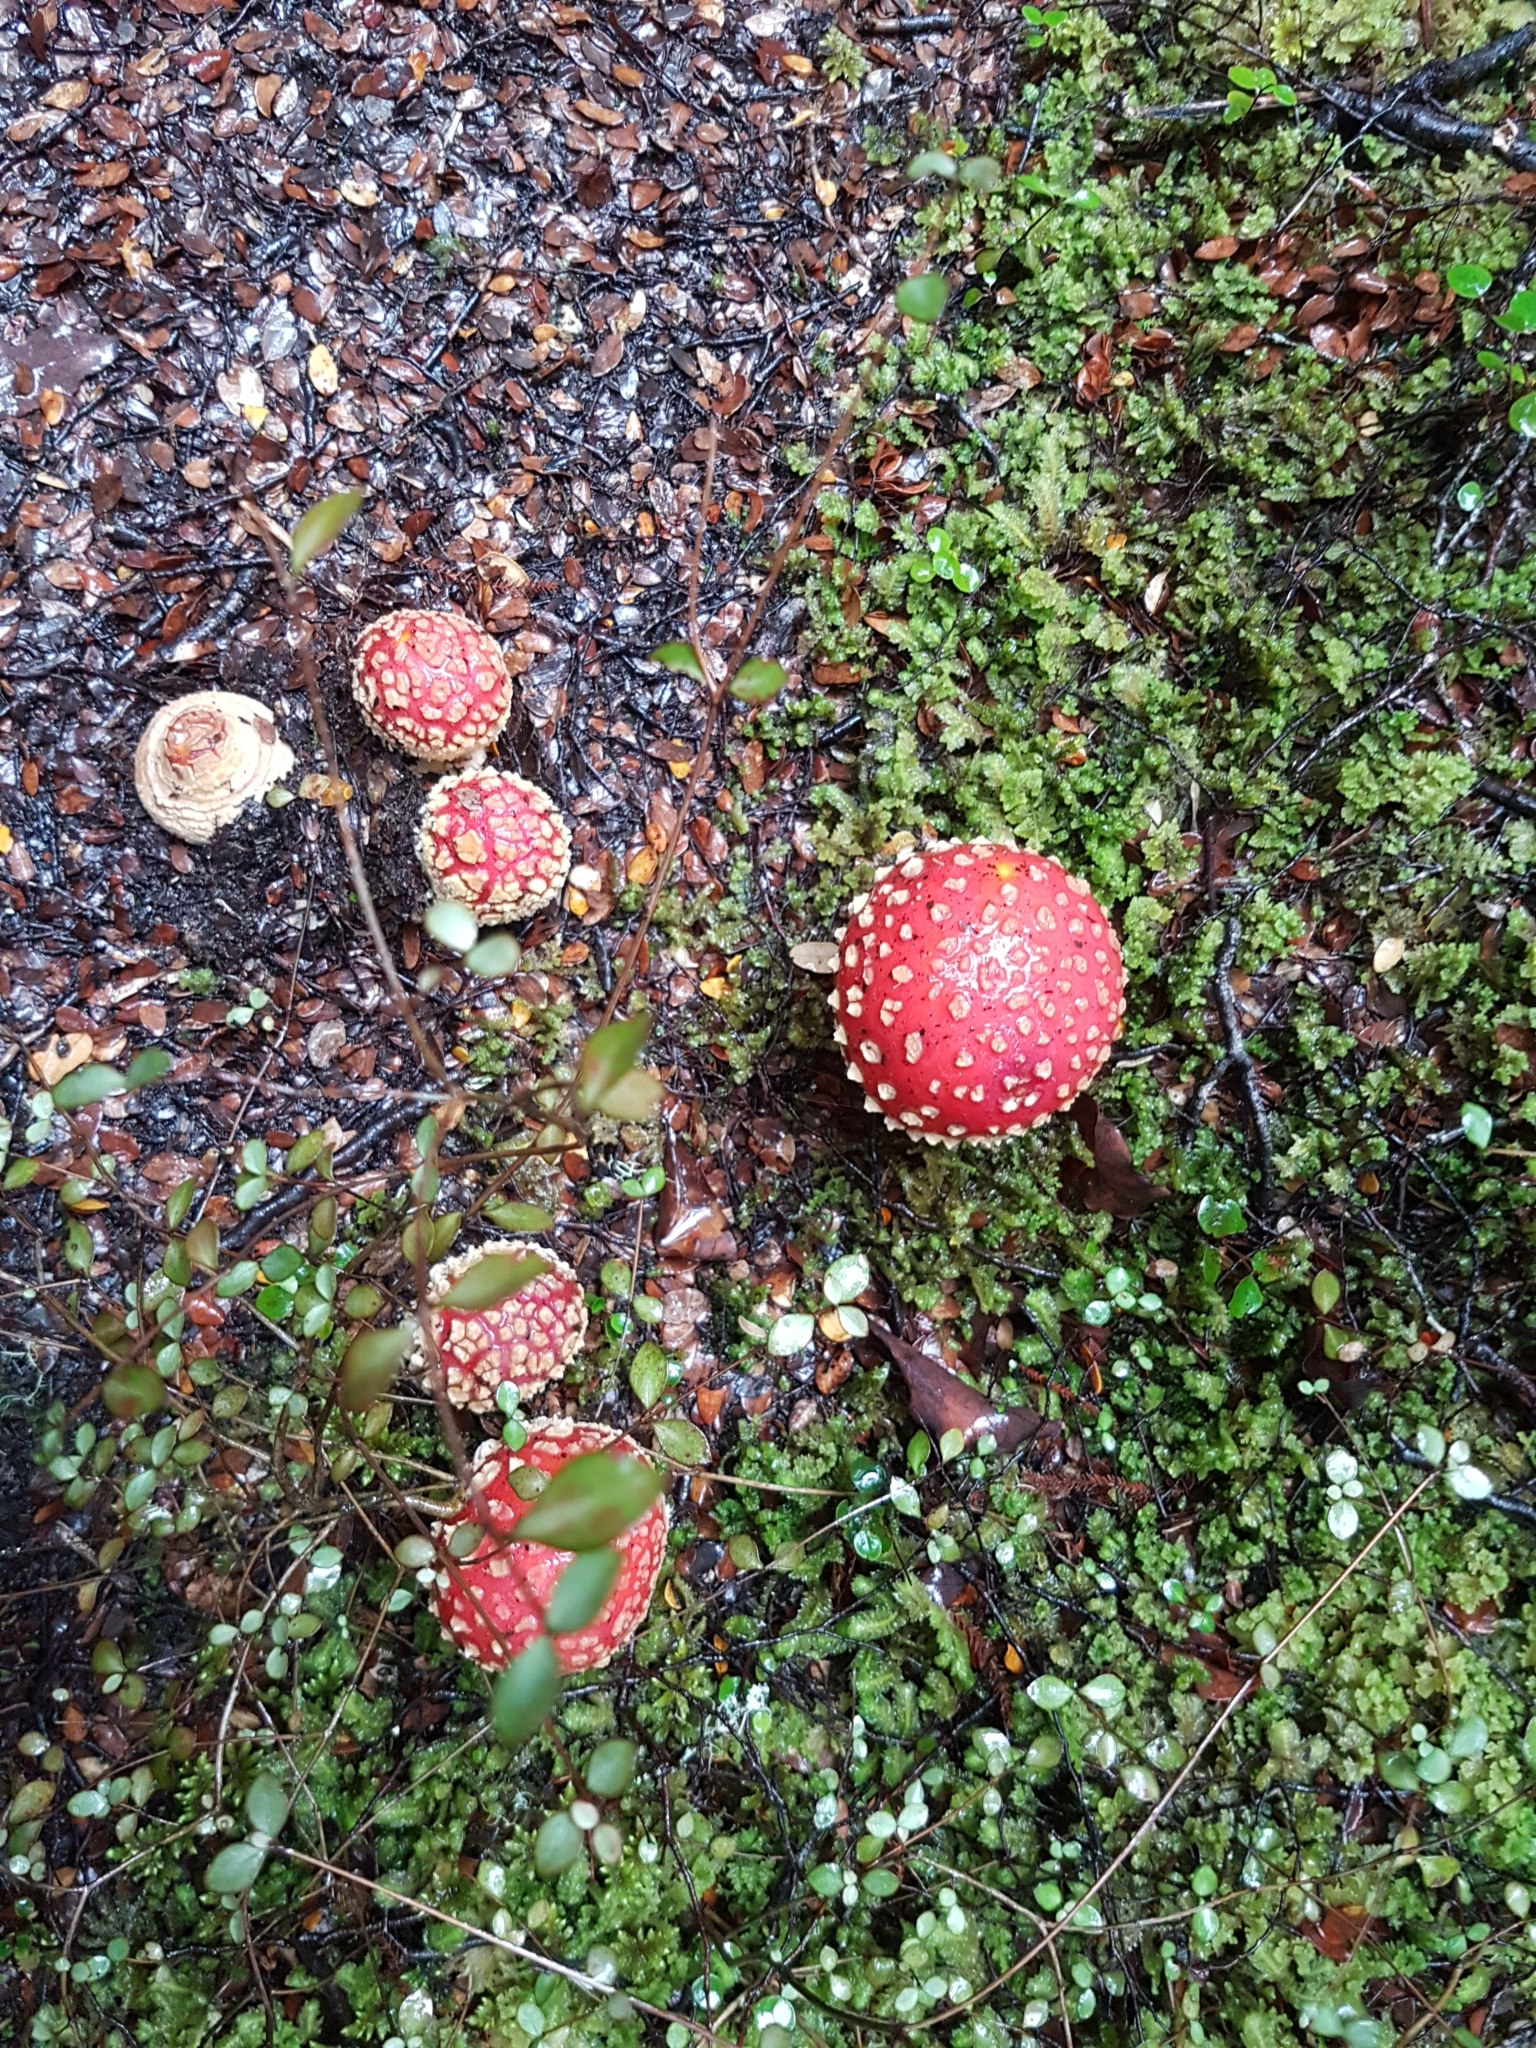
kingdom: Fungi
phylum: Basidiomycota
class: Agaricomycetes
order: Agaricales
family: Amanitaceae
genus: Amanita
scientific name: Amanita muscaria
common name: Fly agaric
